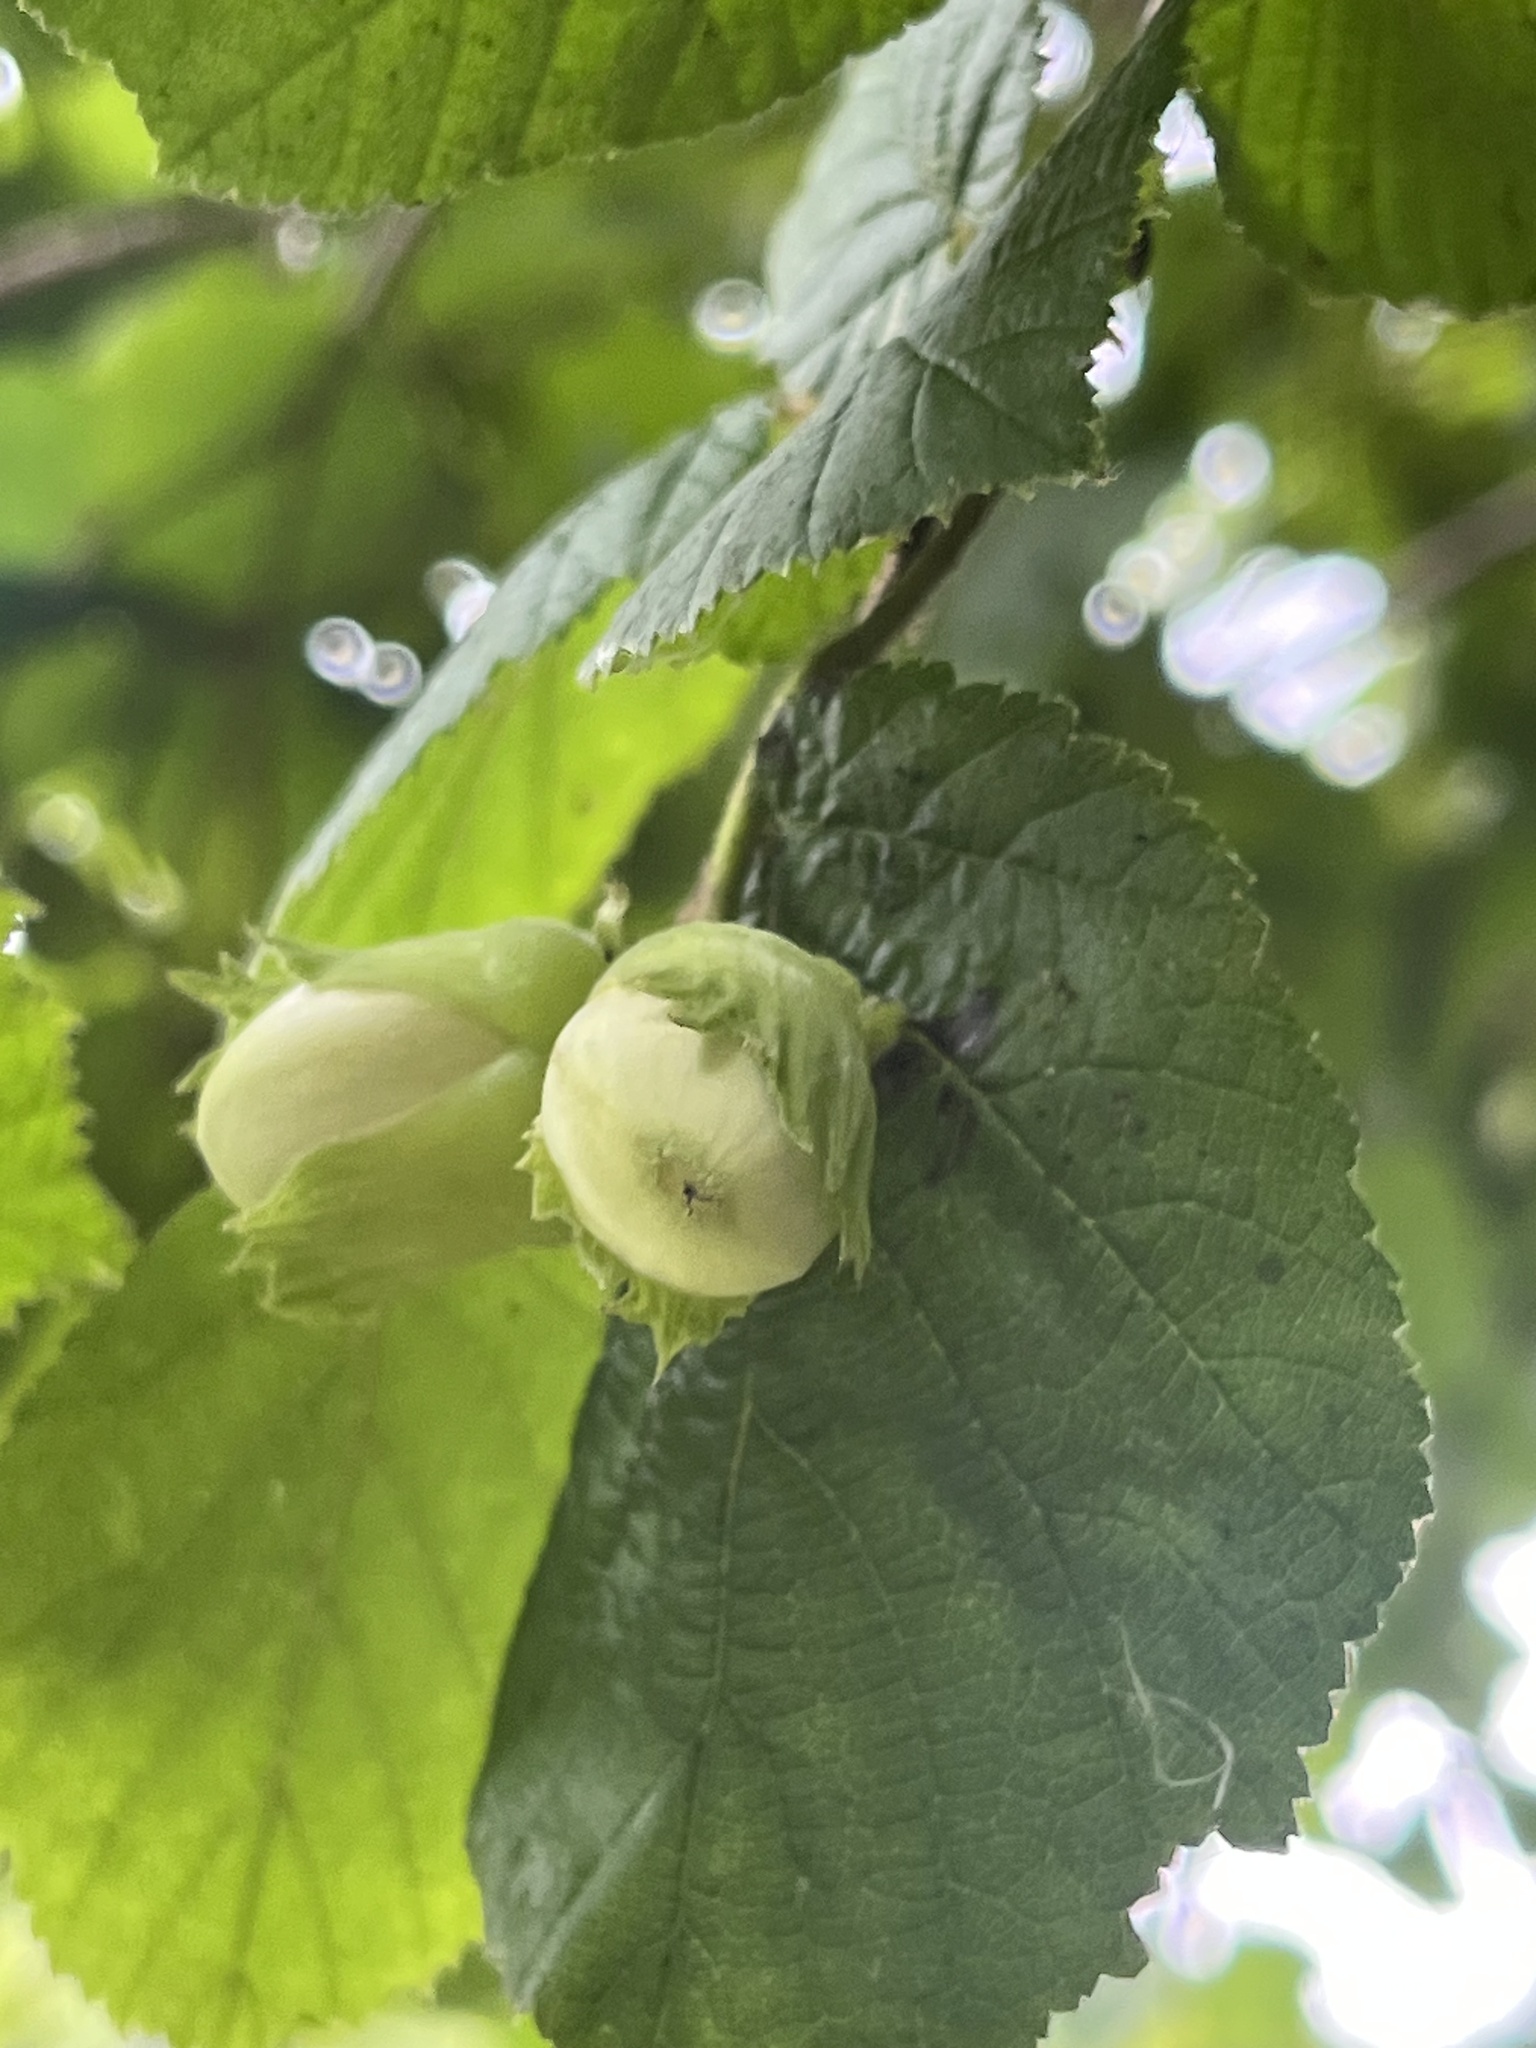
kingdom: Plantae
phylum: Tracheophyta
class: Magnoliopsida
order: Fagales
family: Betulaceae
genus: Corylus
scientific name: Corylus avellana
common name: European hazel
